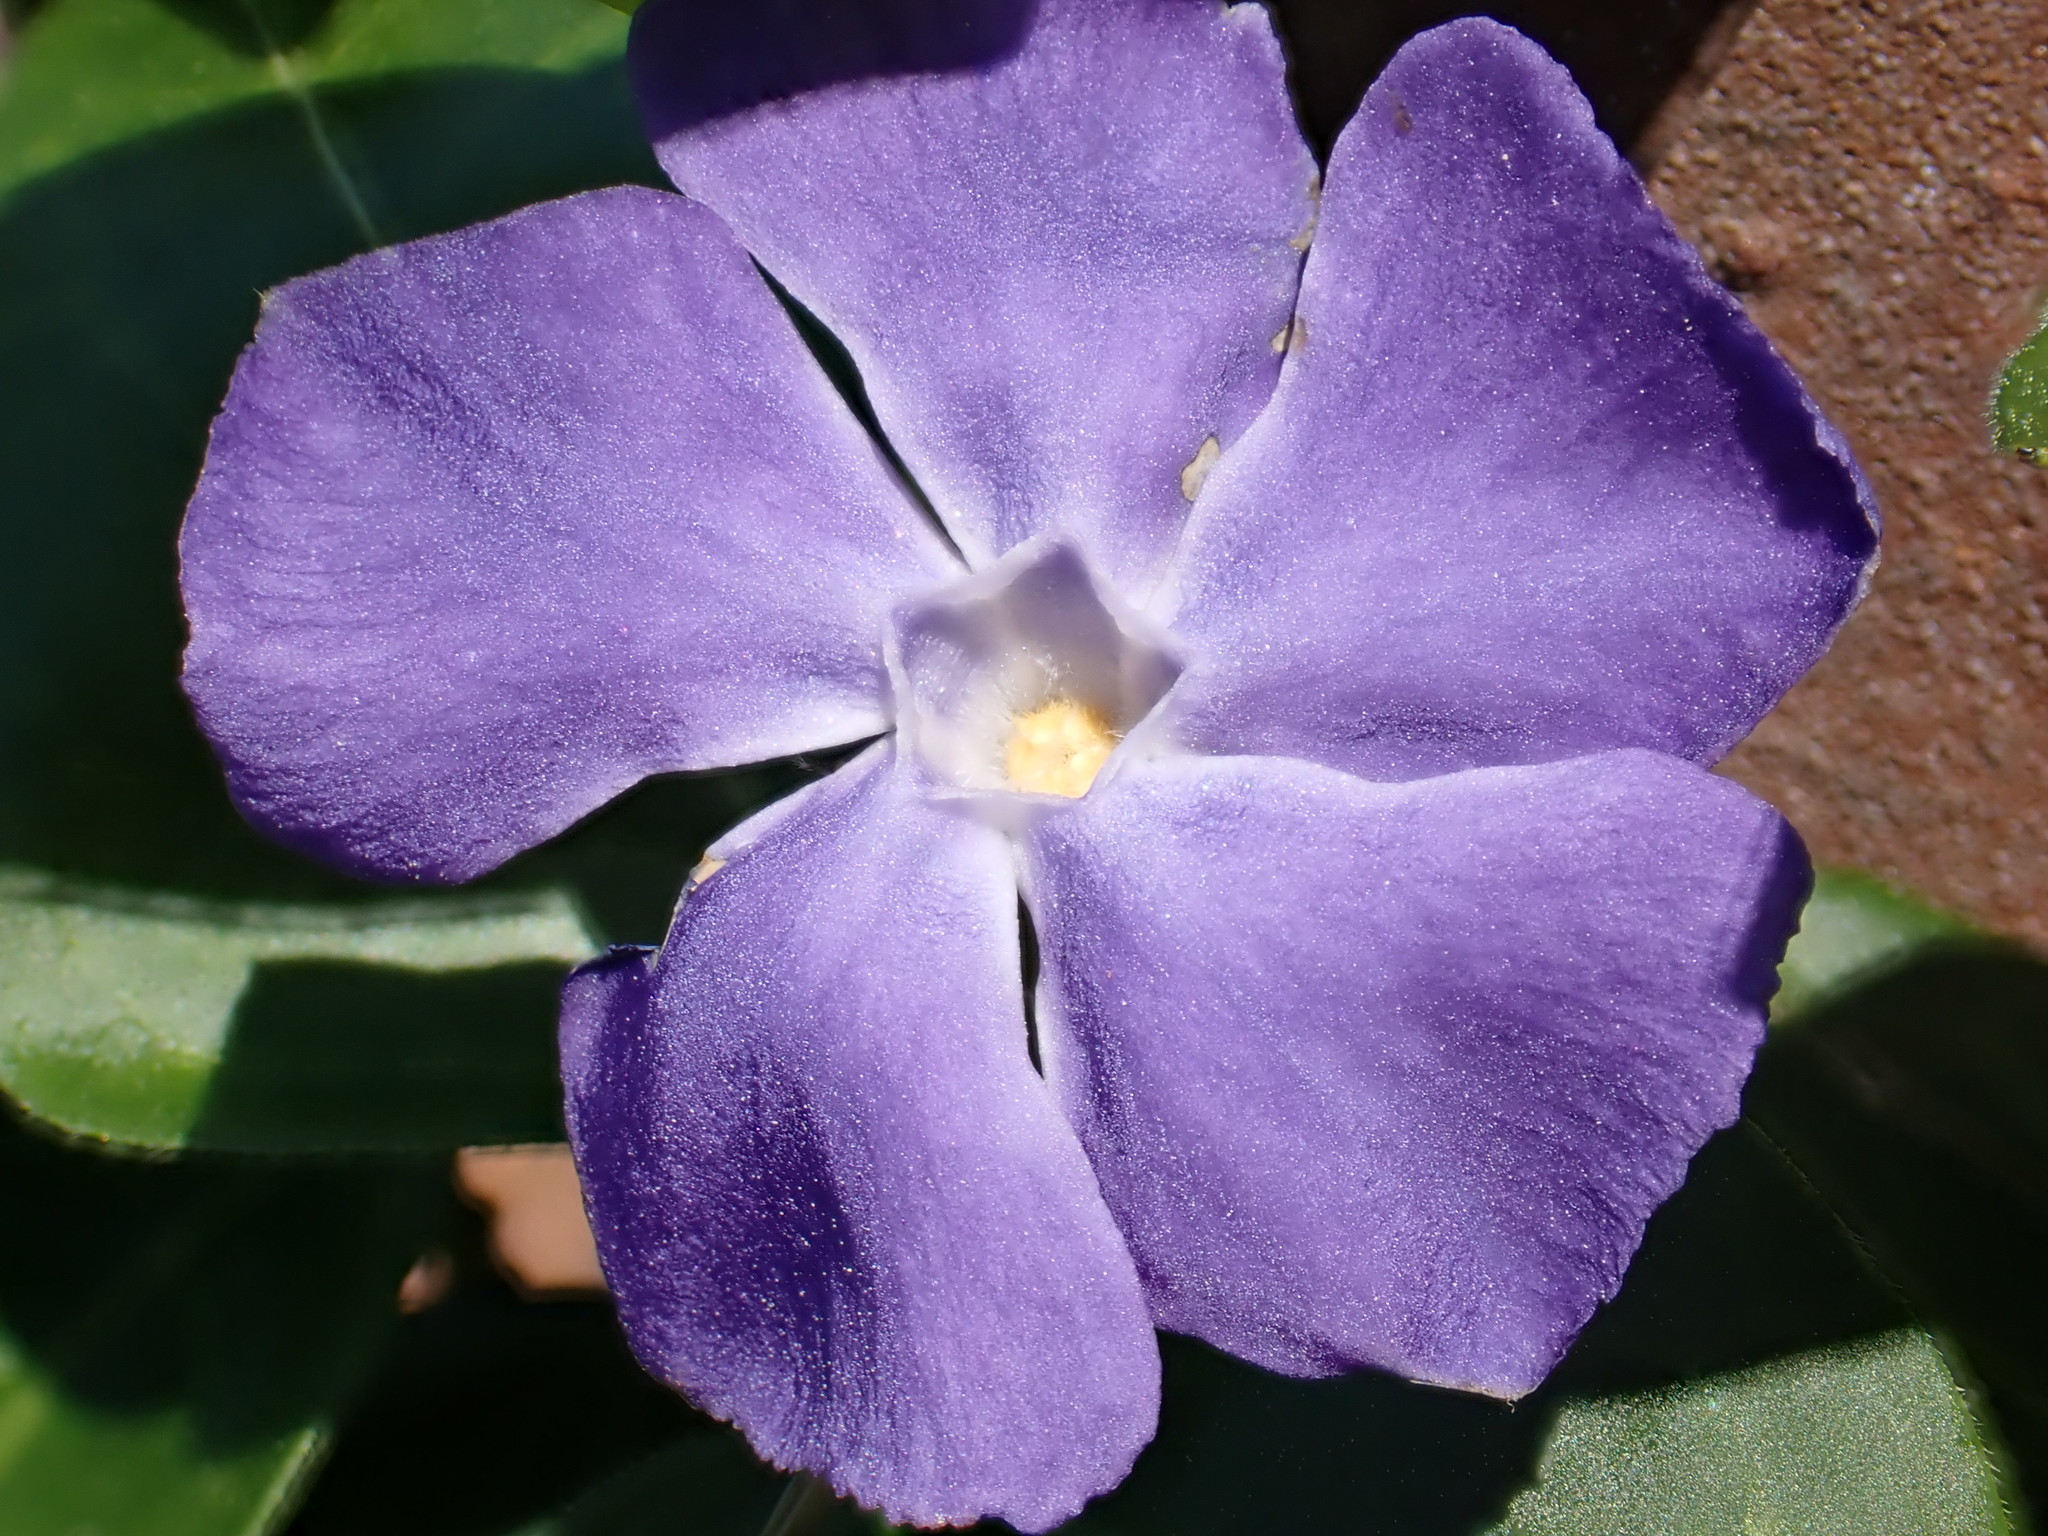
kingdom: Plantae
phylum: Tracheophyta
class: Magnoliopsida
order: Gentianales
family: Apocynaceae
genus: Vinca
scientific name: Vinca major
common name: Greater periwinkle
